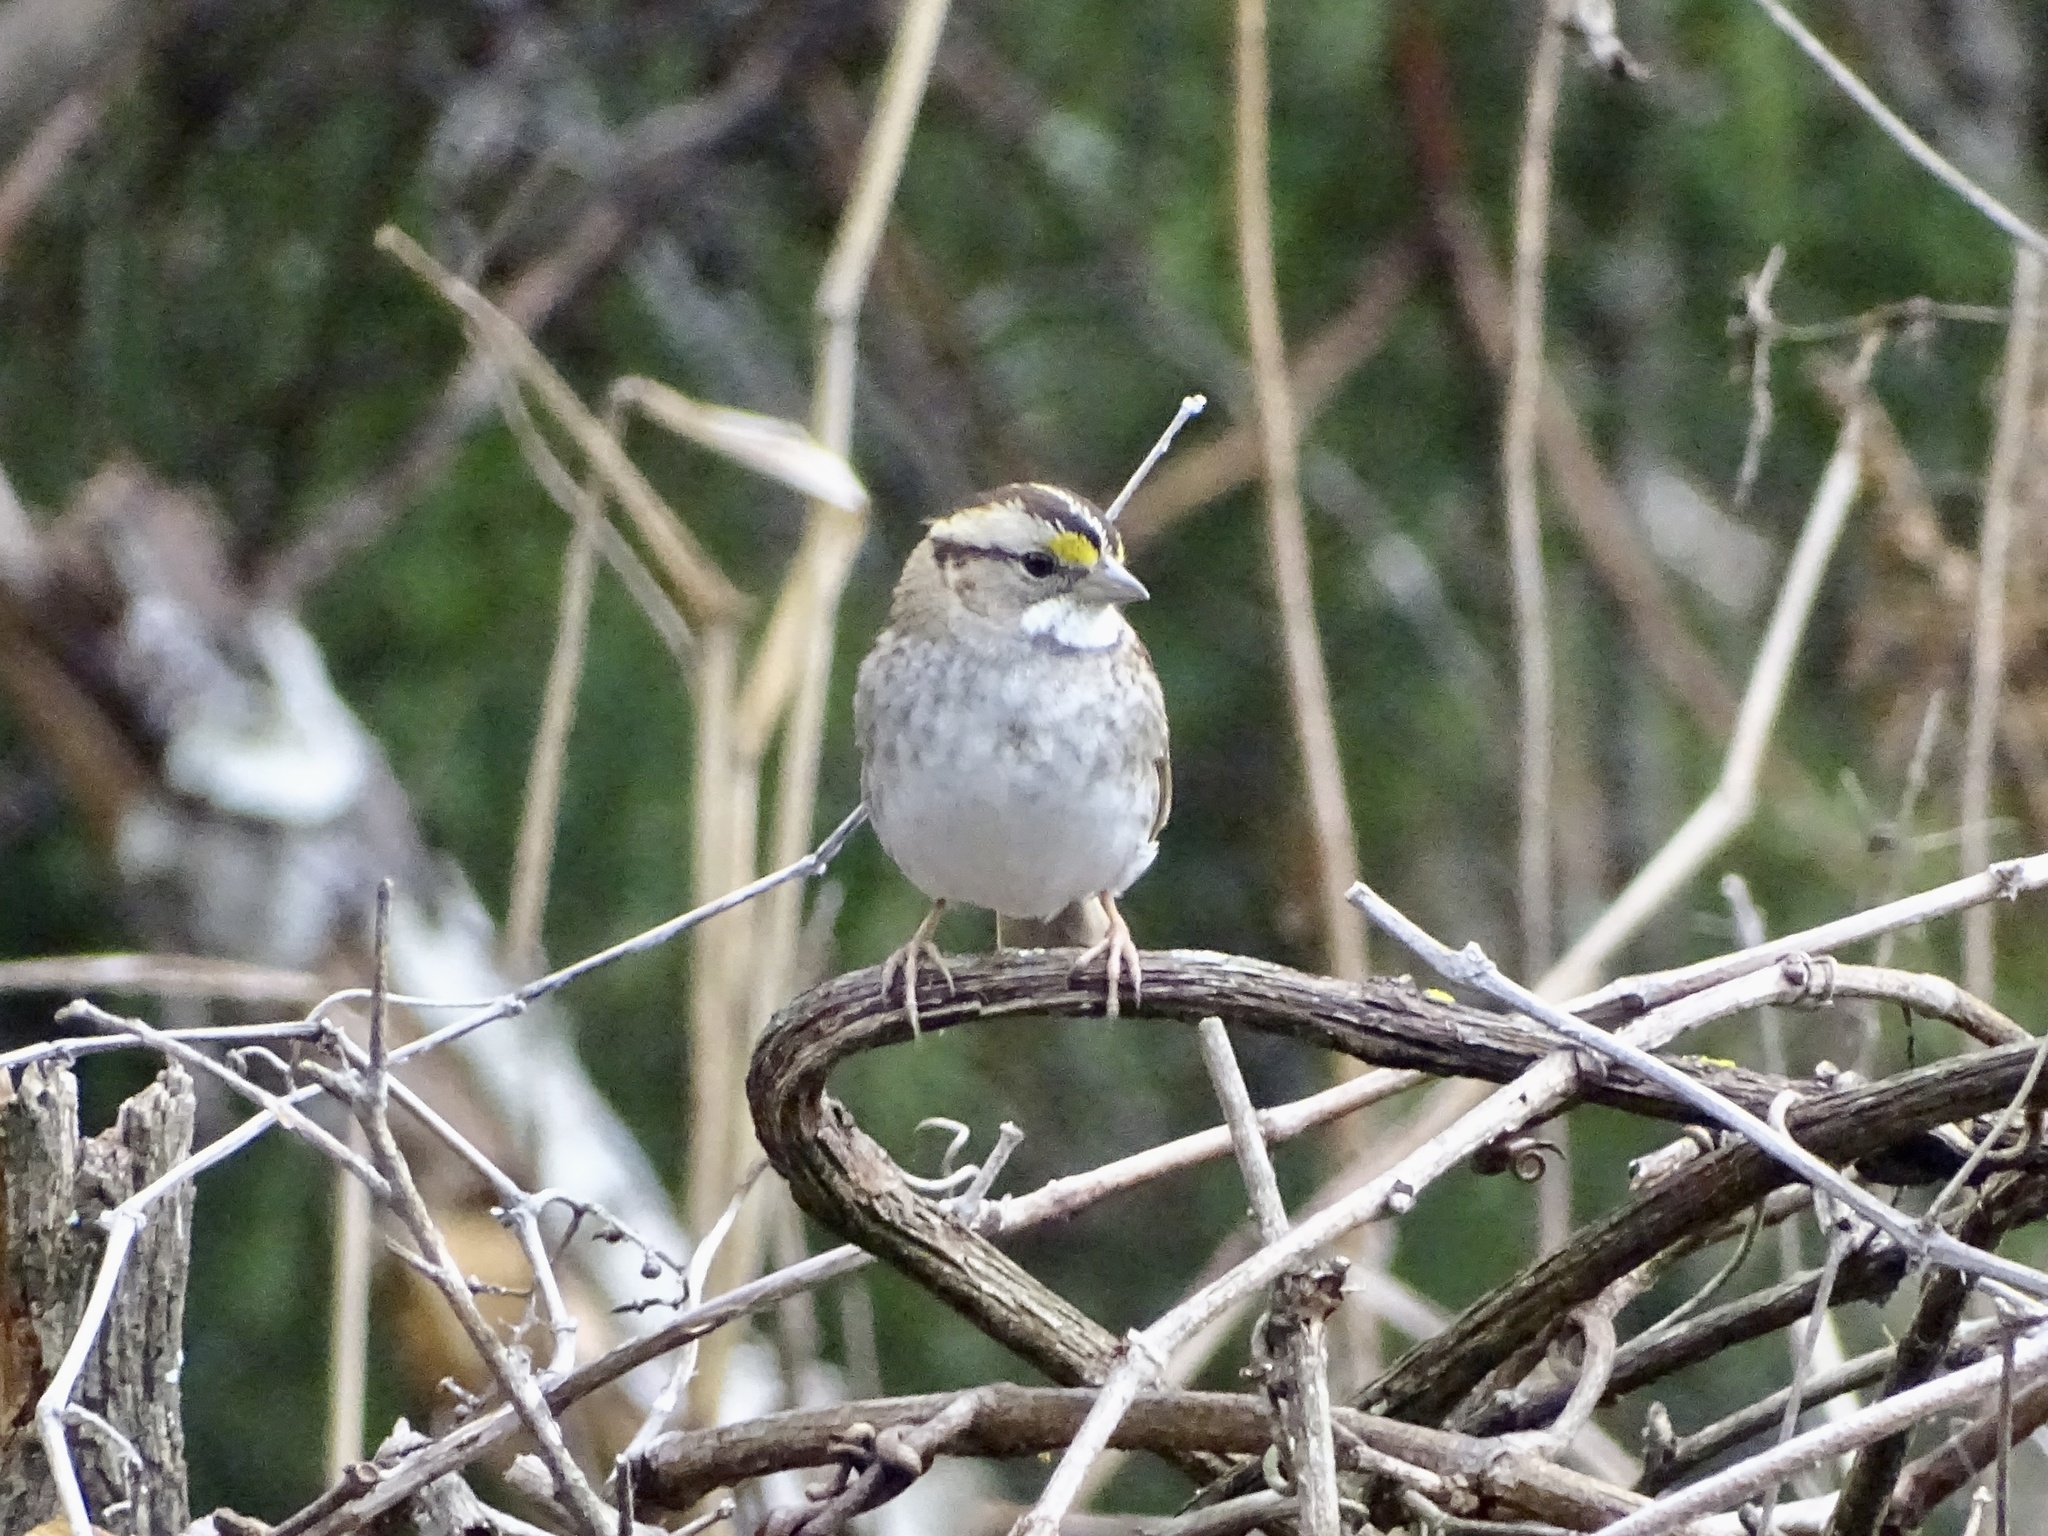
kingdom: Animalia
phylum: Chordata
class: Aves
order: Passeriformes
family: Passerellidae
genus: Zonotrichia
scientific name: Zonotrichia albicollis
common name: White-throated sparrow
